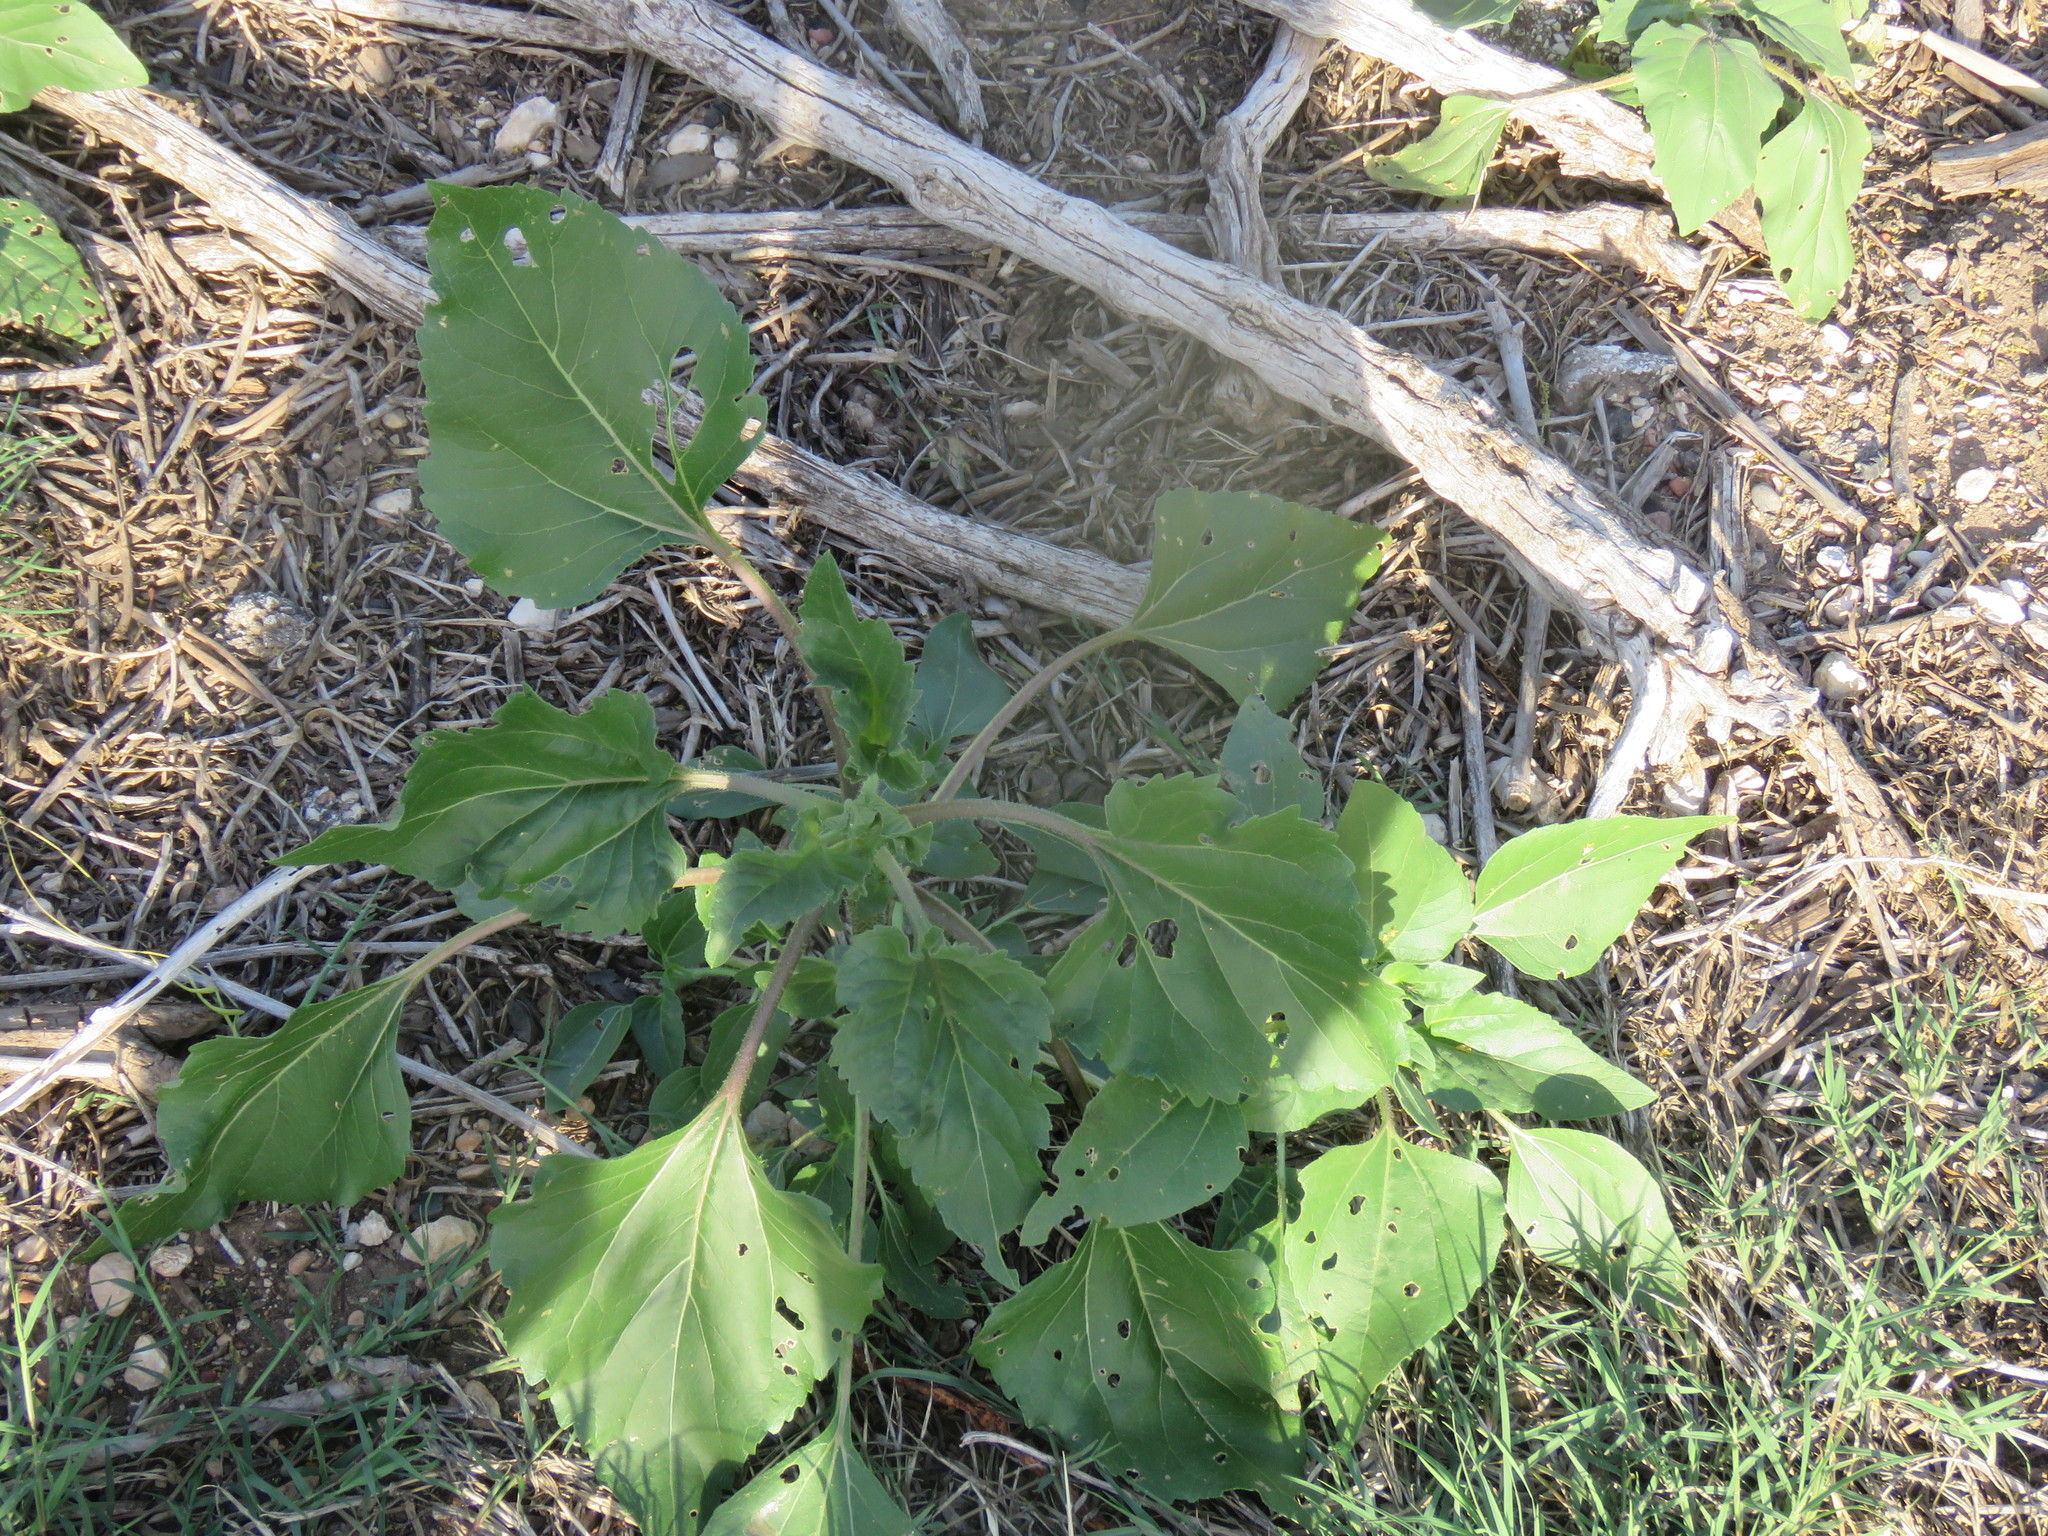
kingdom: Plantae
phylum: Tracheophyta
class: Magnoliopsida
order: Asterales
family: Asteraceae
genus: Helianthus
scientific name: Helianthus annuus
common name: Sunflower
